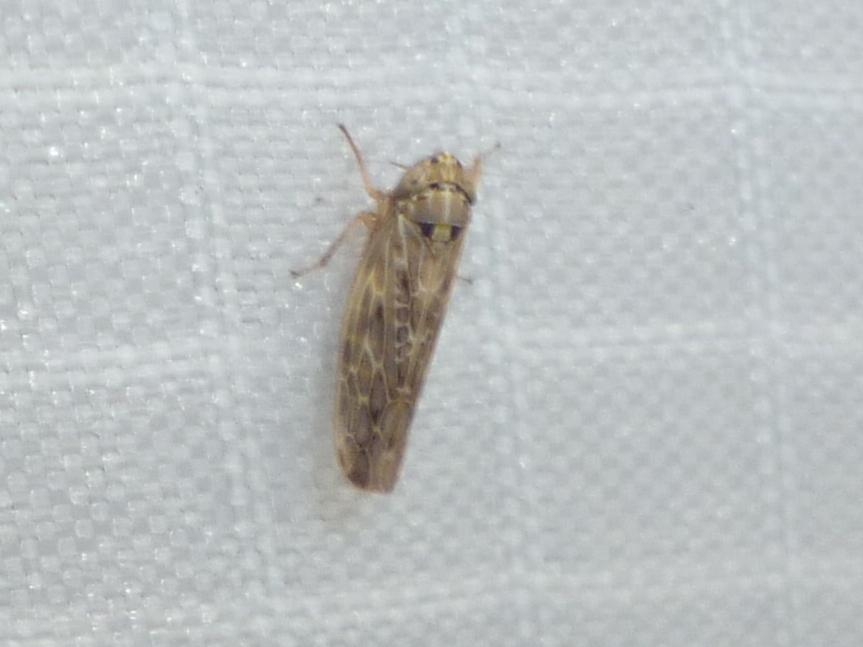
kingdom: Animalia
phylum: Arthropoda
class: Insecta
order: Hemiptera
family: Cicadellidae
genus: Endria
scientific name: Endria inimicus
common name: Painted leafhopper
